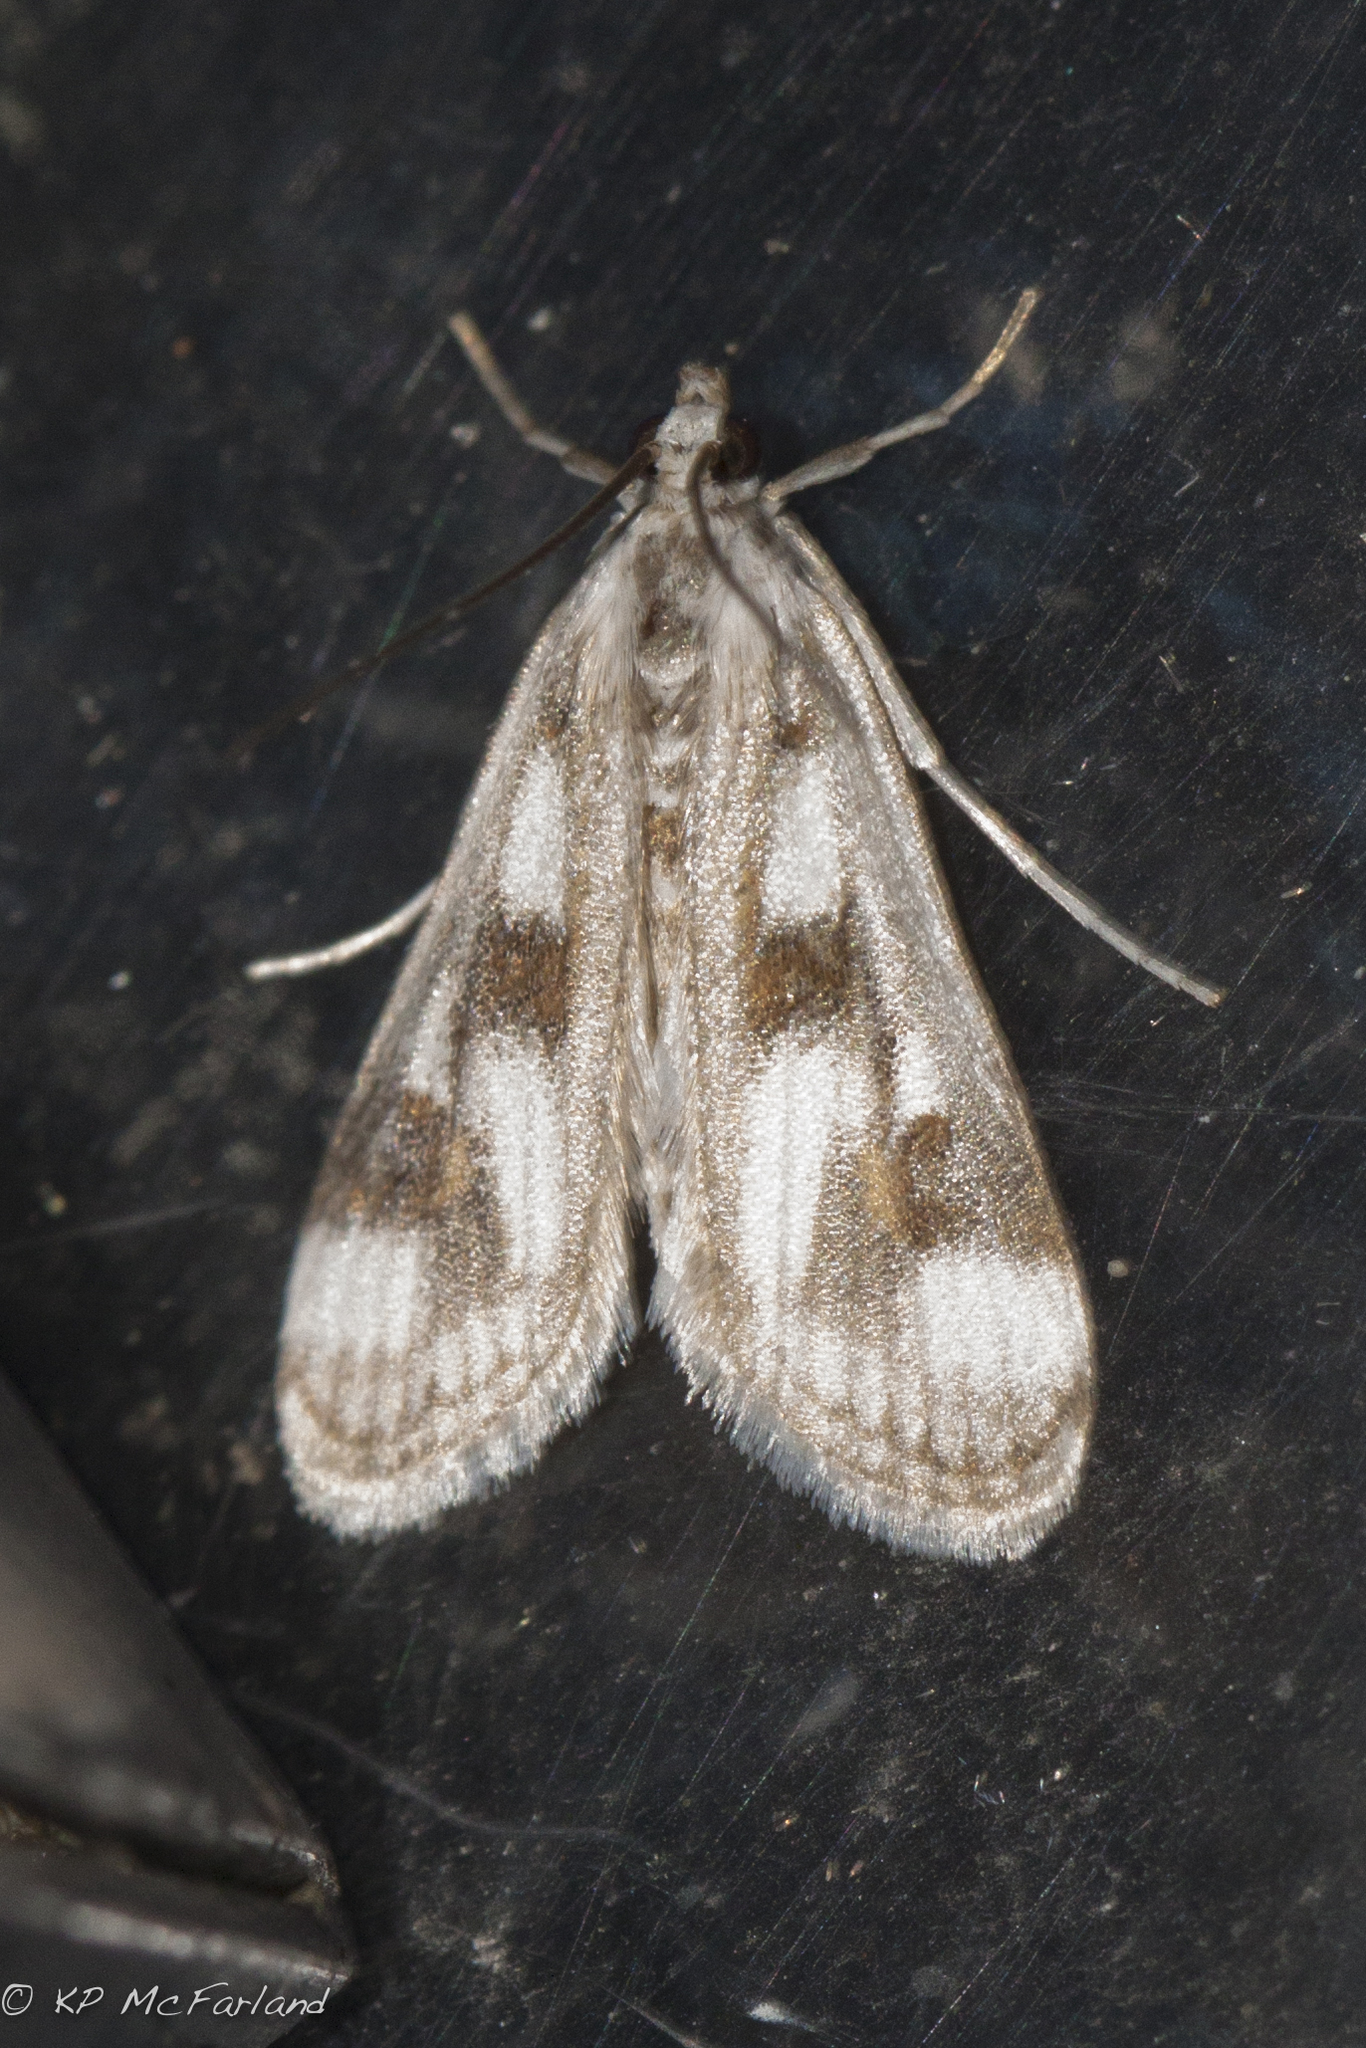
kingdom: Animalia
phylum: Arthropoda
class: Insecta
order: Lepidoptera
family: Crambidae
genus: Parapoynx
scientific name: Parapoynx maculalis
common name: Polymorphic pondweed moth
